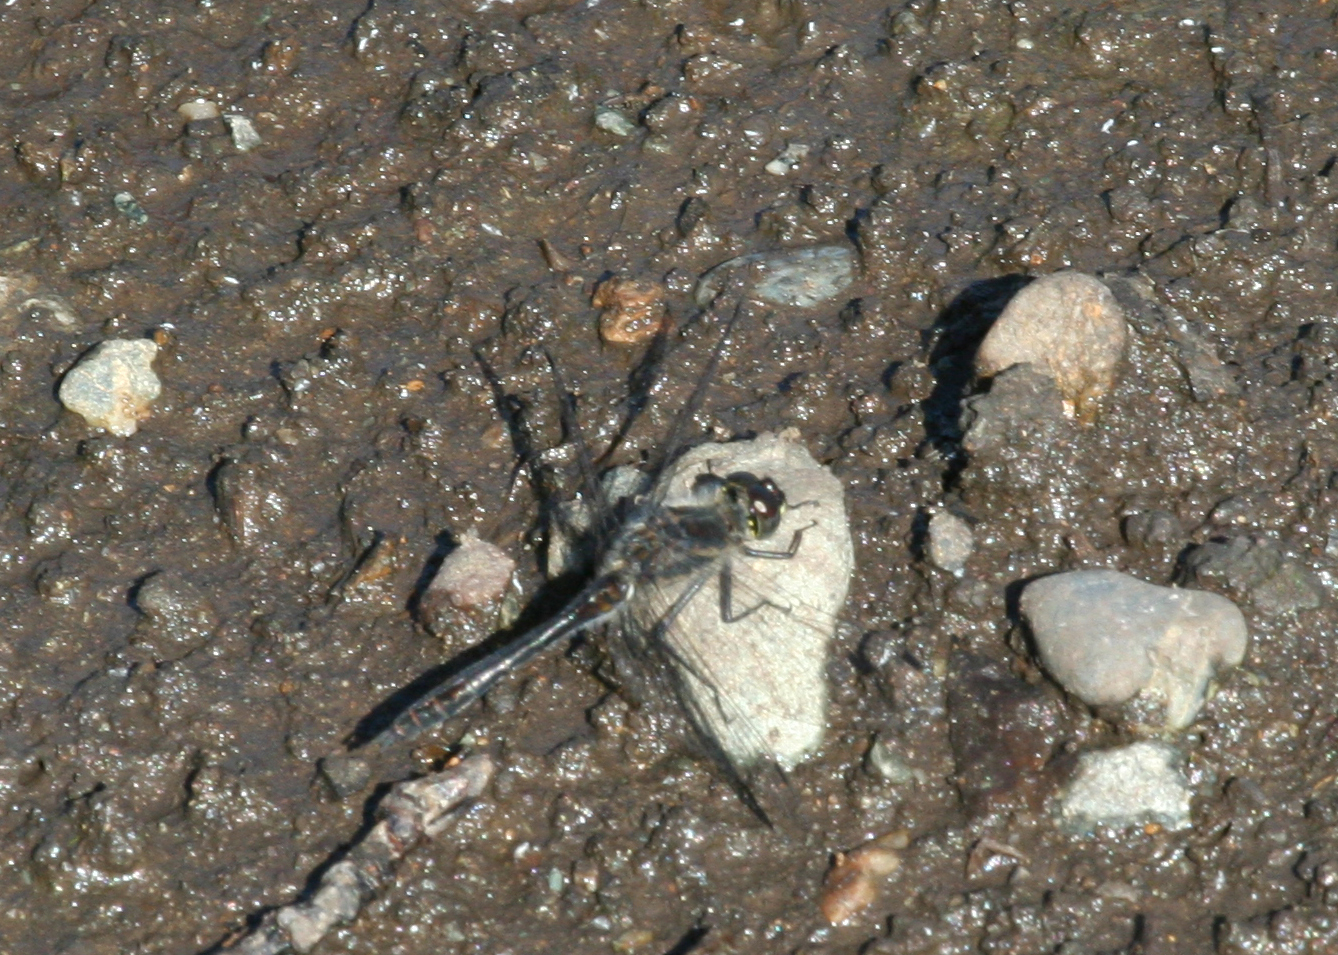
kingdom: Animalia
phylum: Arthropoda
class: Insecta
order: Odonata
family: Libellulidae
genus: Sympetrum
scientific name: Sympetrum danae
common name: Black darter
